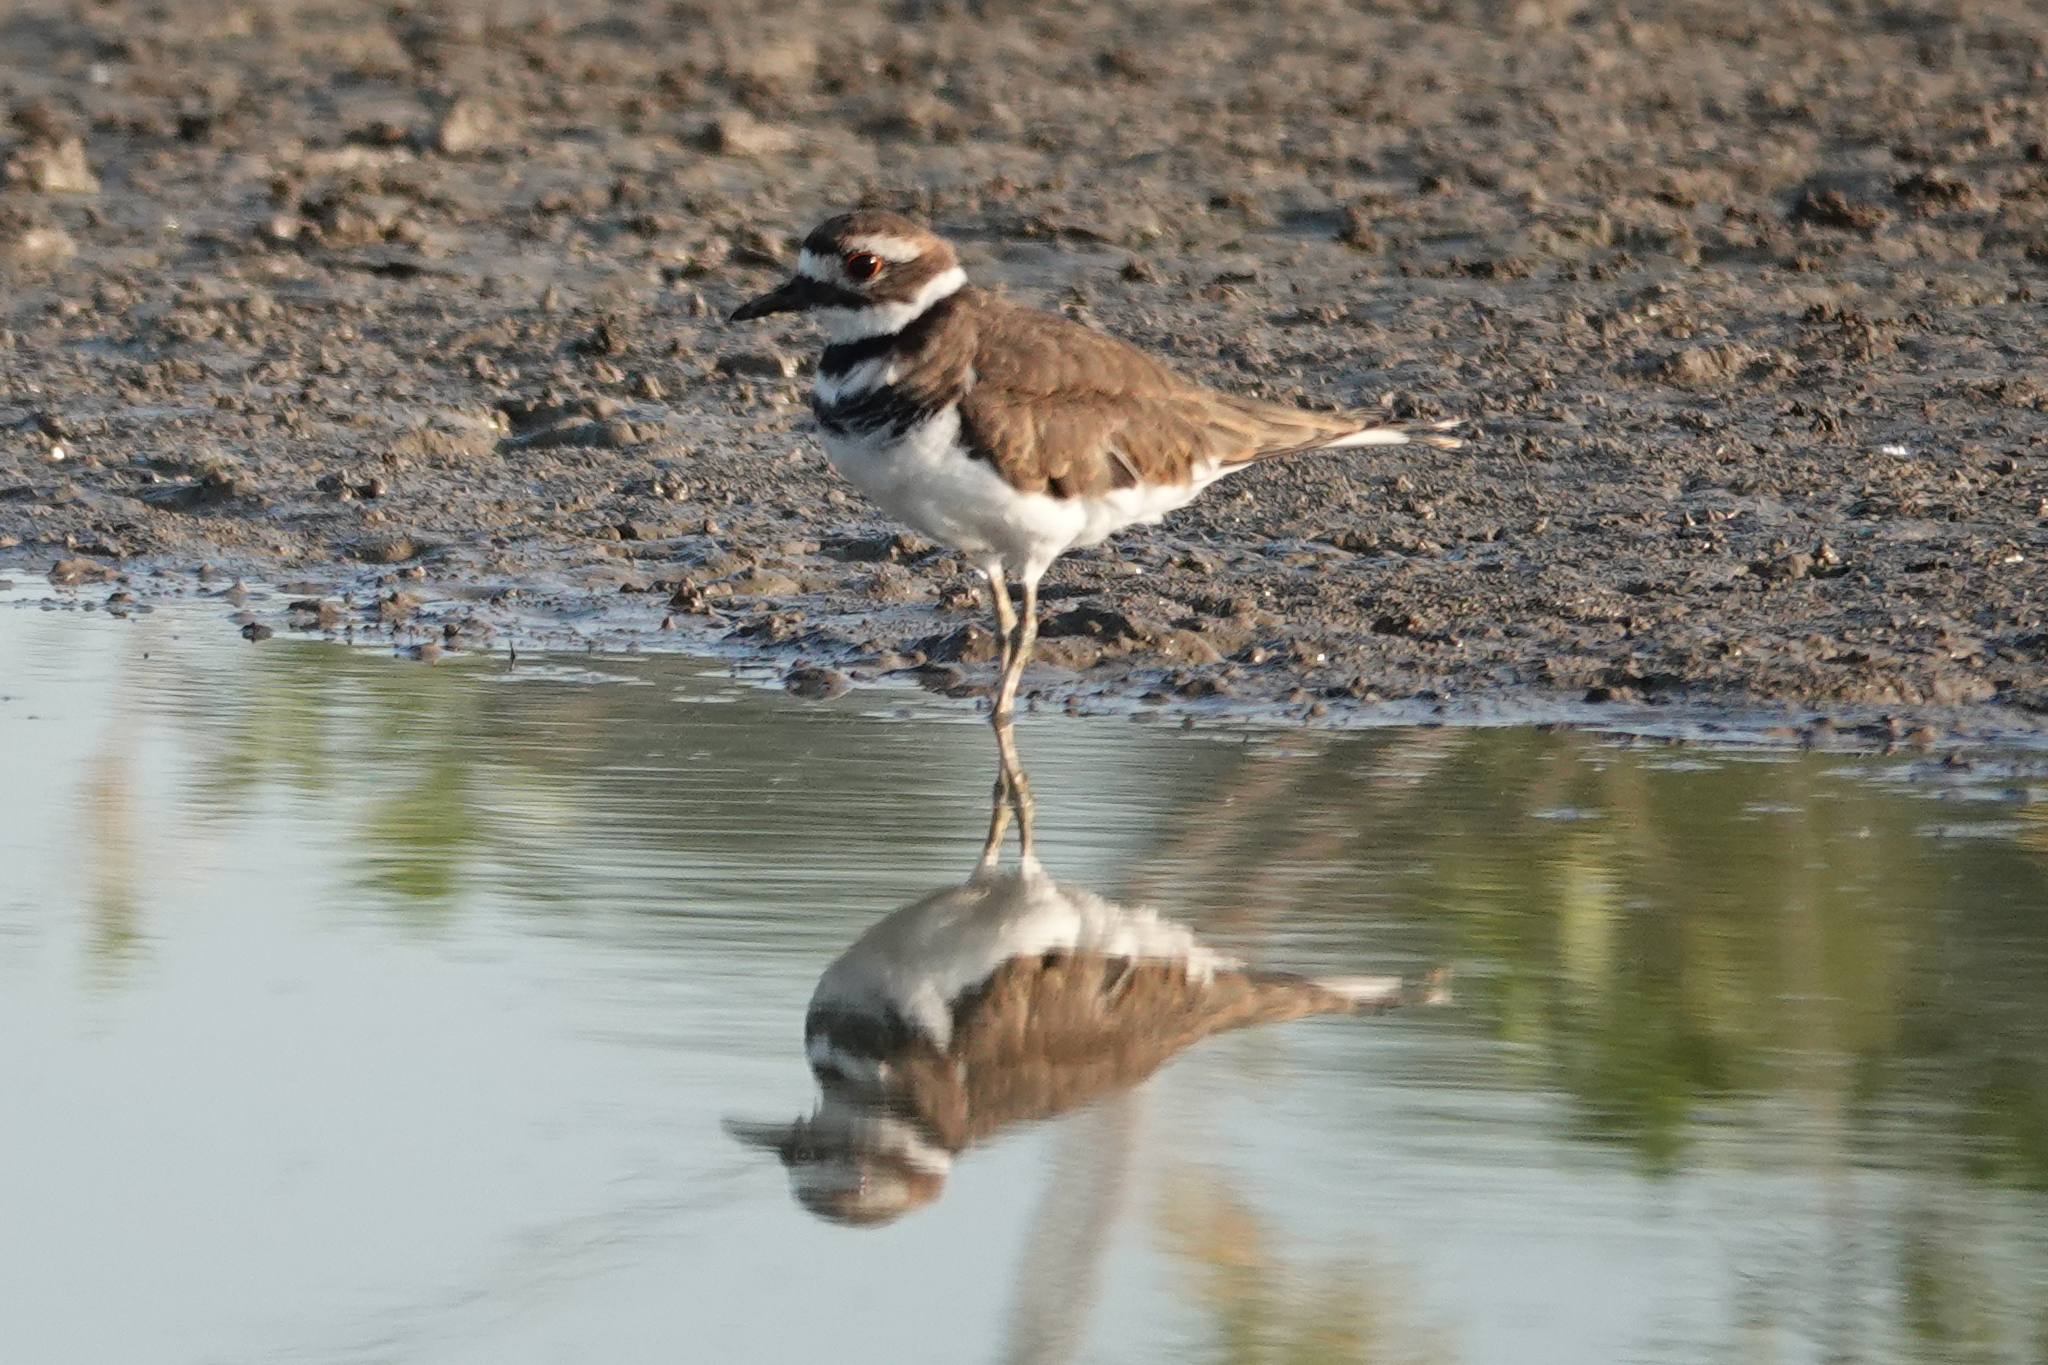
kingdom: Animalia
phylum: Chordata
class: Aves
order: Charadriiformes
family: Charadriidae
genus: Charadrius
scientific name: Charadrius vociferus
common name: Killdeer
